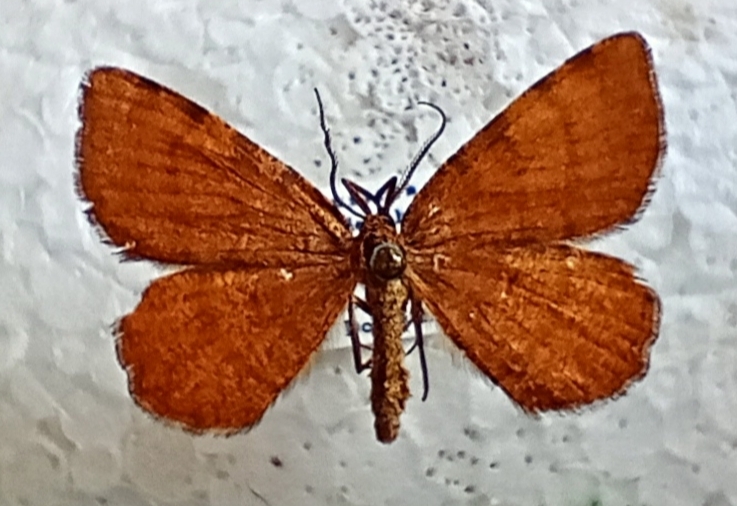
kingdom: Animalia
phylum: Arthropoda
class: Insecta
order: Lepidoptera
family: Geometridae
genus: Macaria
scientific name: Macaria brunneata
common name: Rannoch looper
